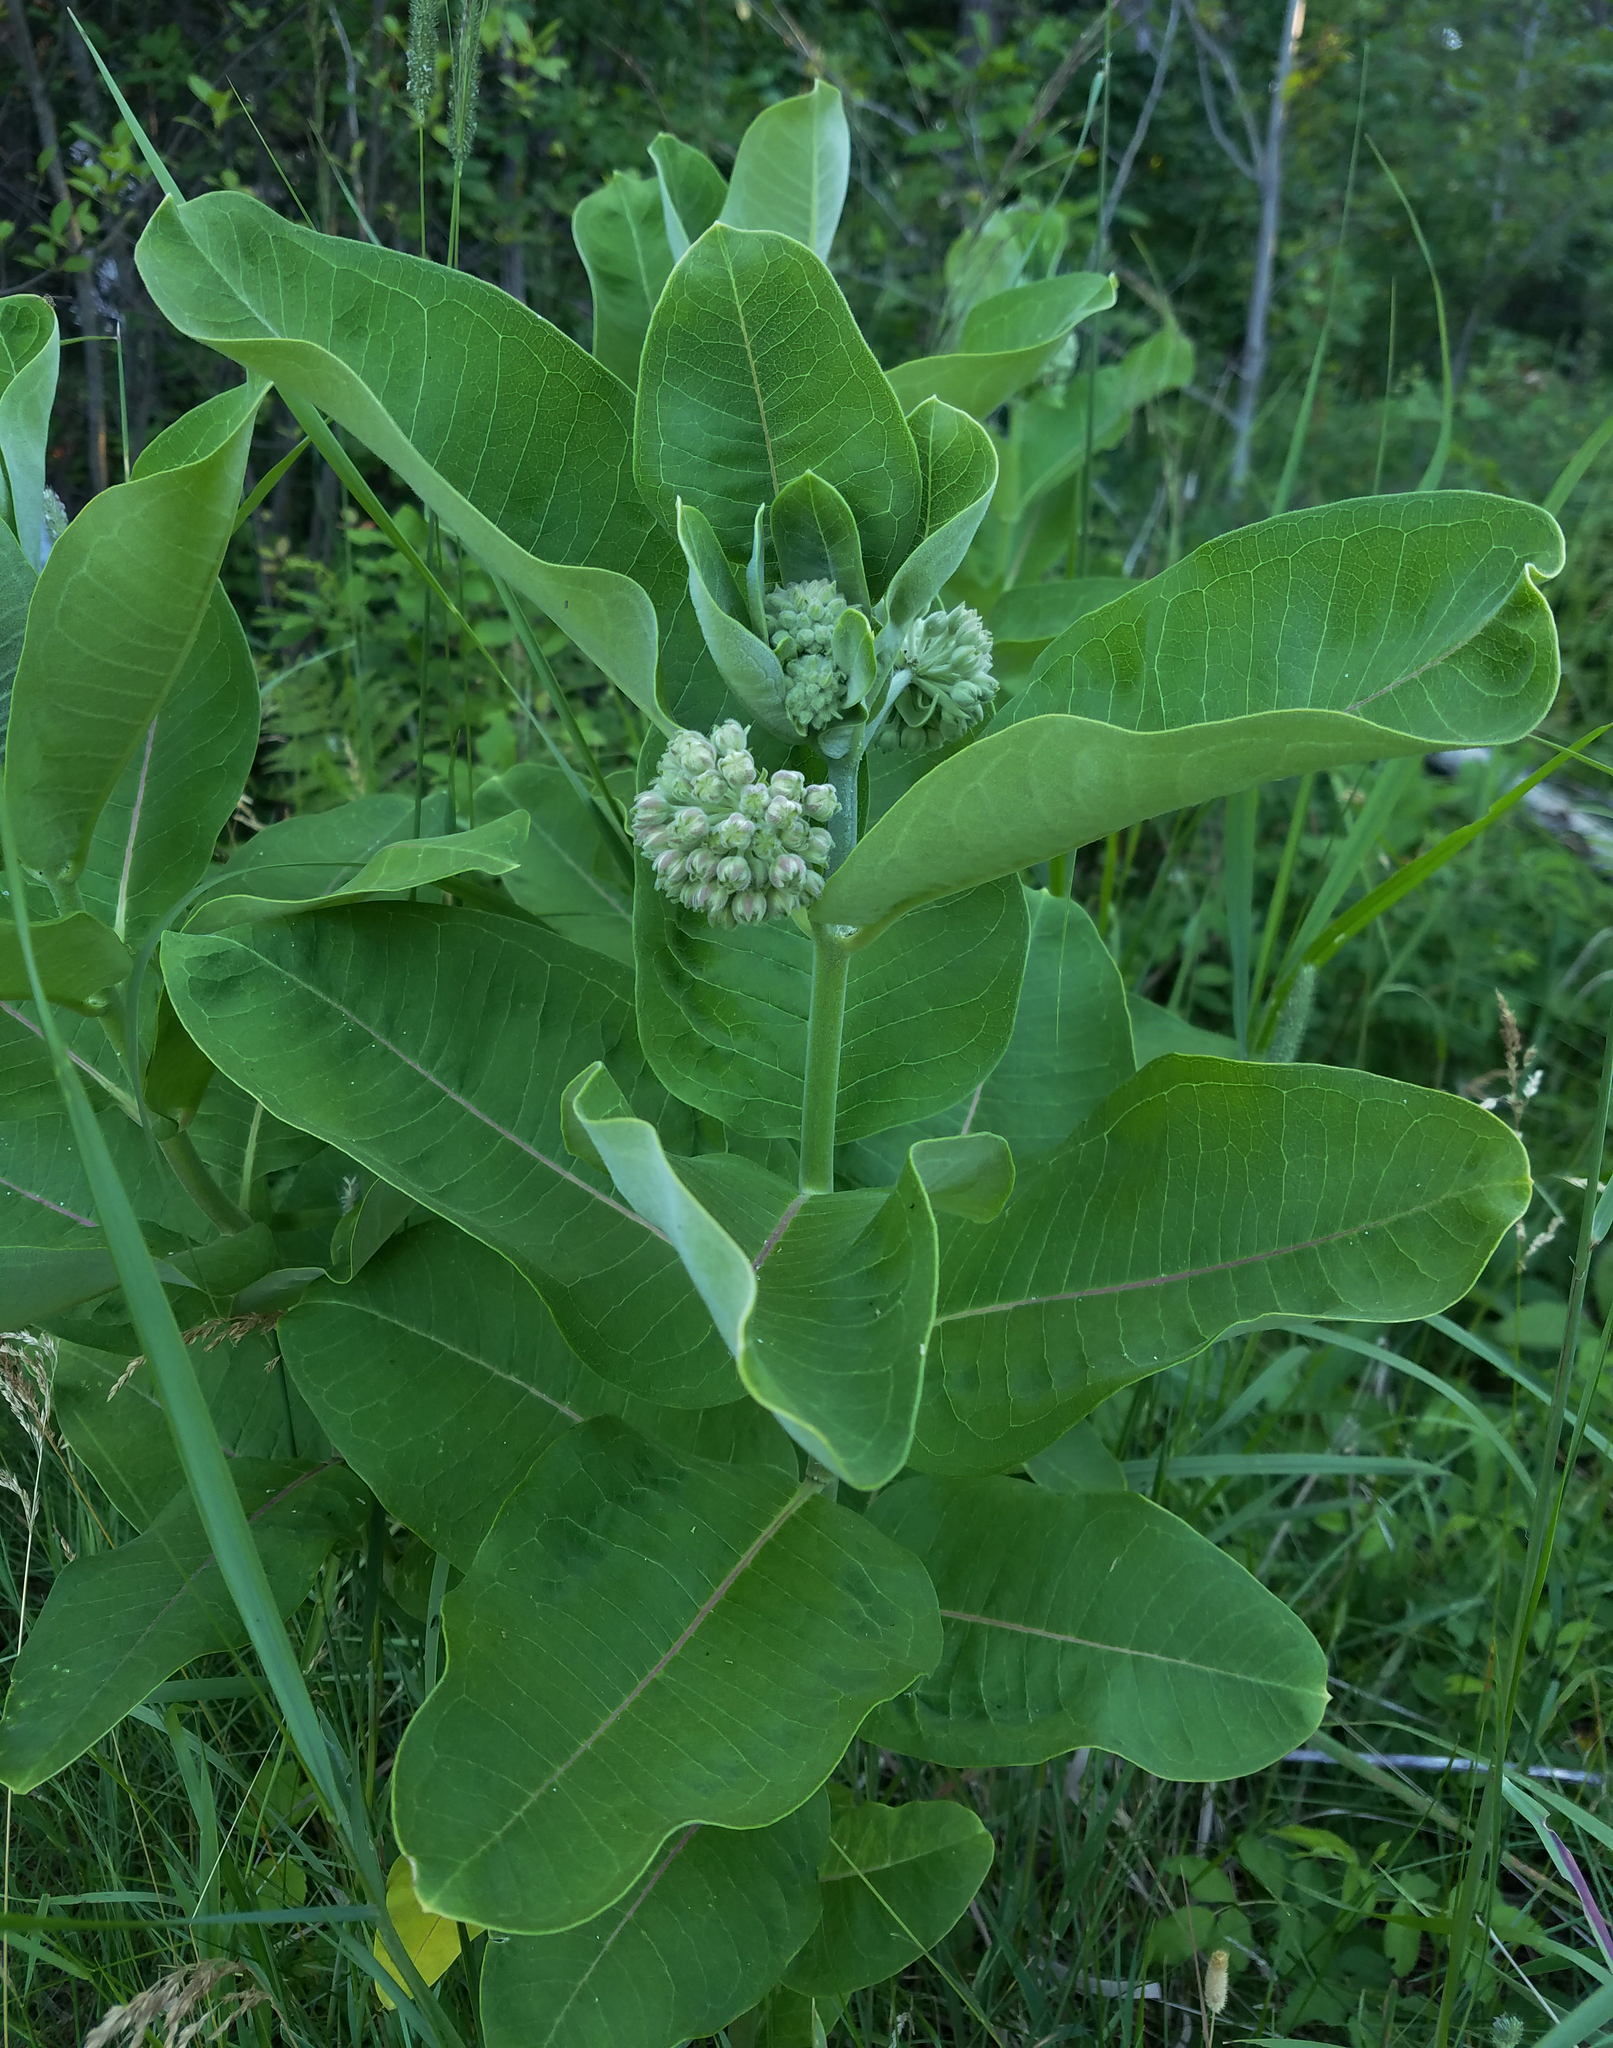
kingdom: Plantae
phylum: Tracheophyta
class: Magnoliopsida
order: Gentianales
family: Apocynaceae
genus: Asclepias
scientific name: Asclepias syriaca
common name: Common milkweed
